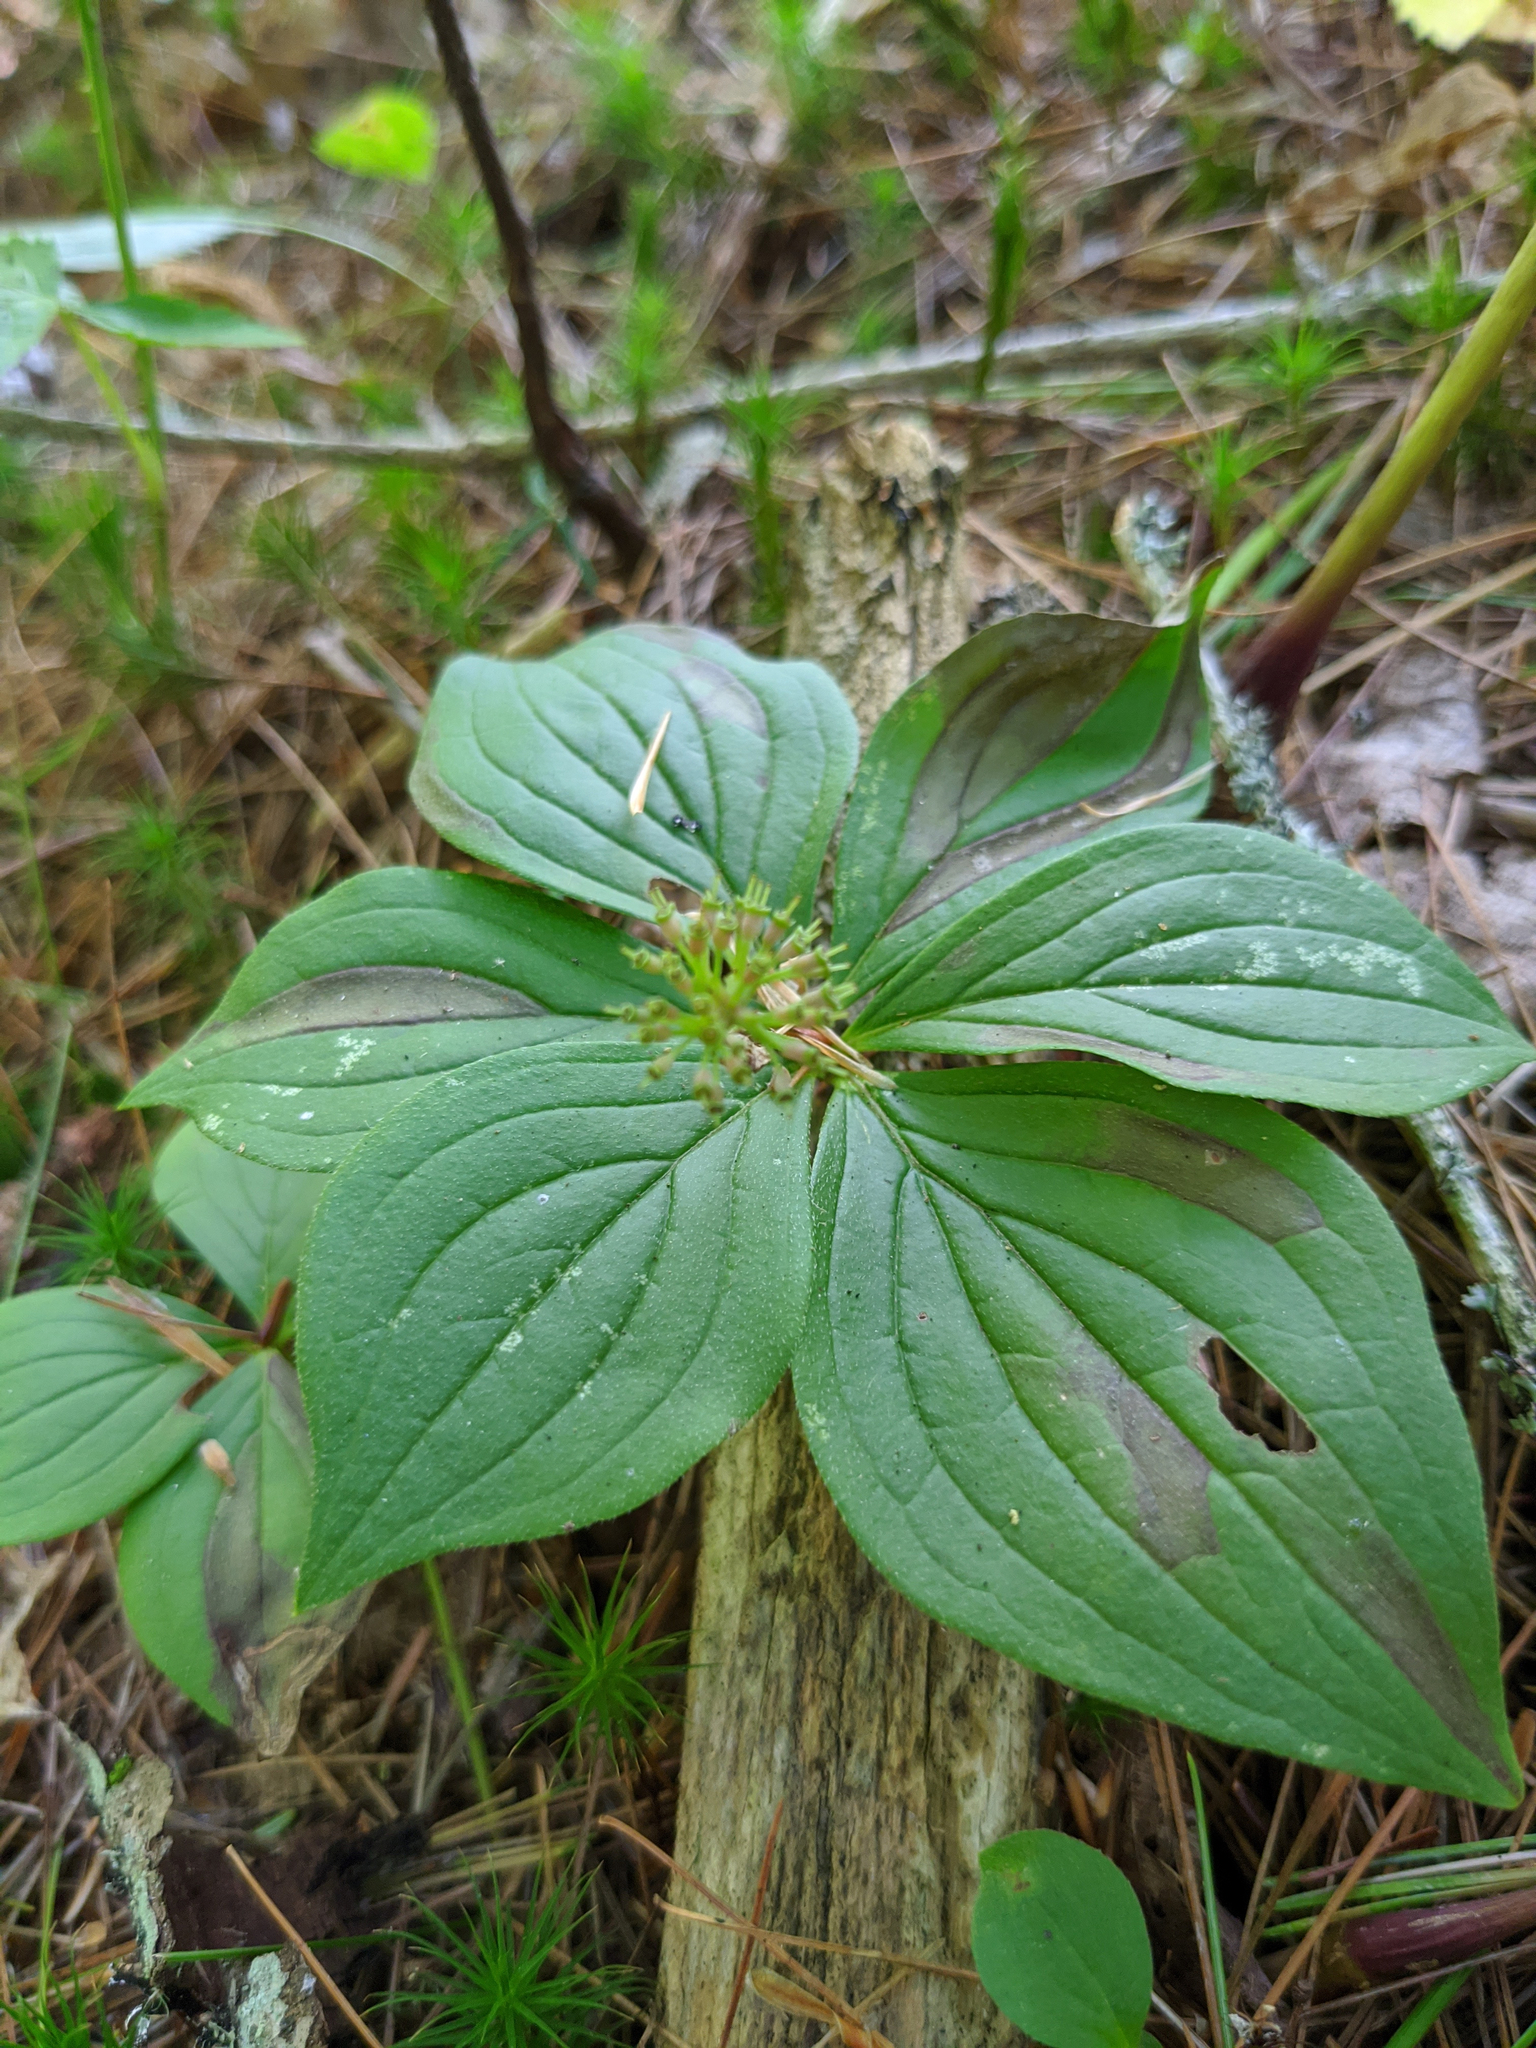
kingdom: Plantae
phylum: Tracheophyta
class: Magnoliopsida
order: Cornales
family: Cornaceae
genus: Cornus
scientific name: Cornus canadensis
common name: Creeping dogwood
